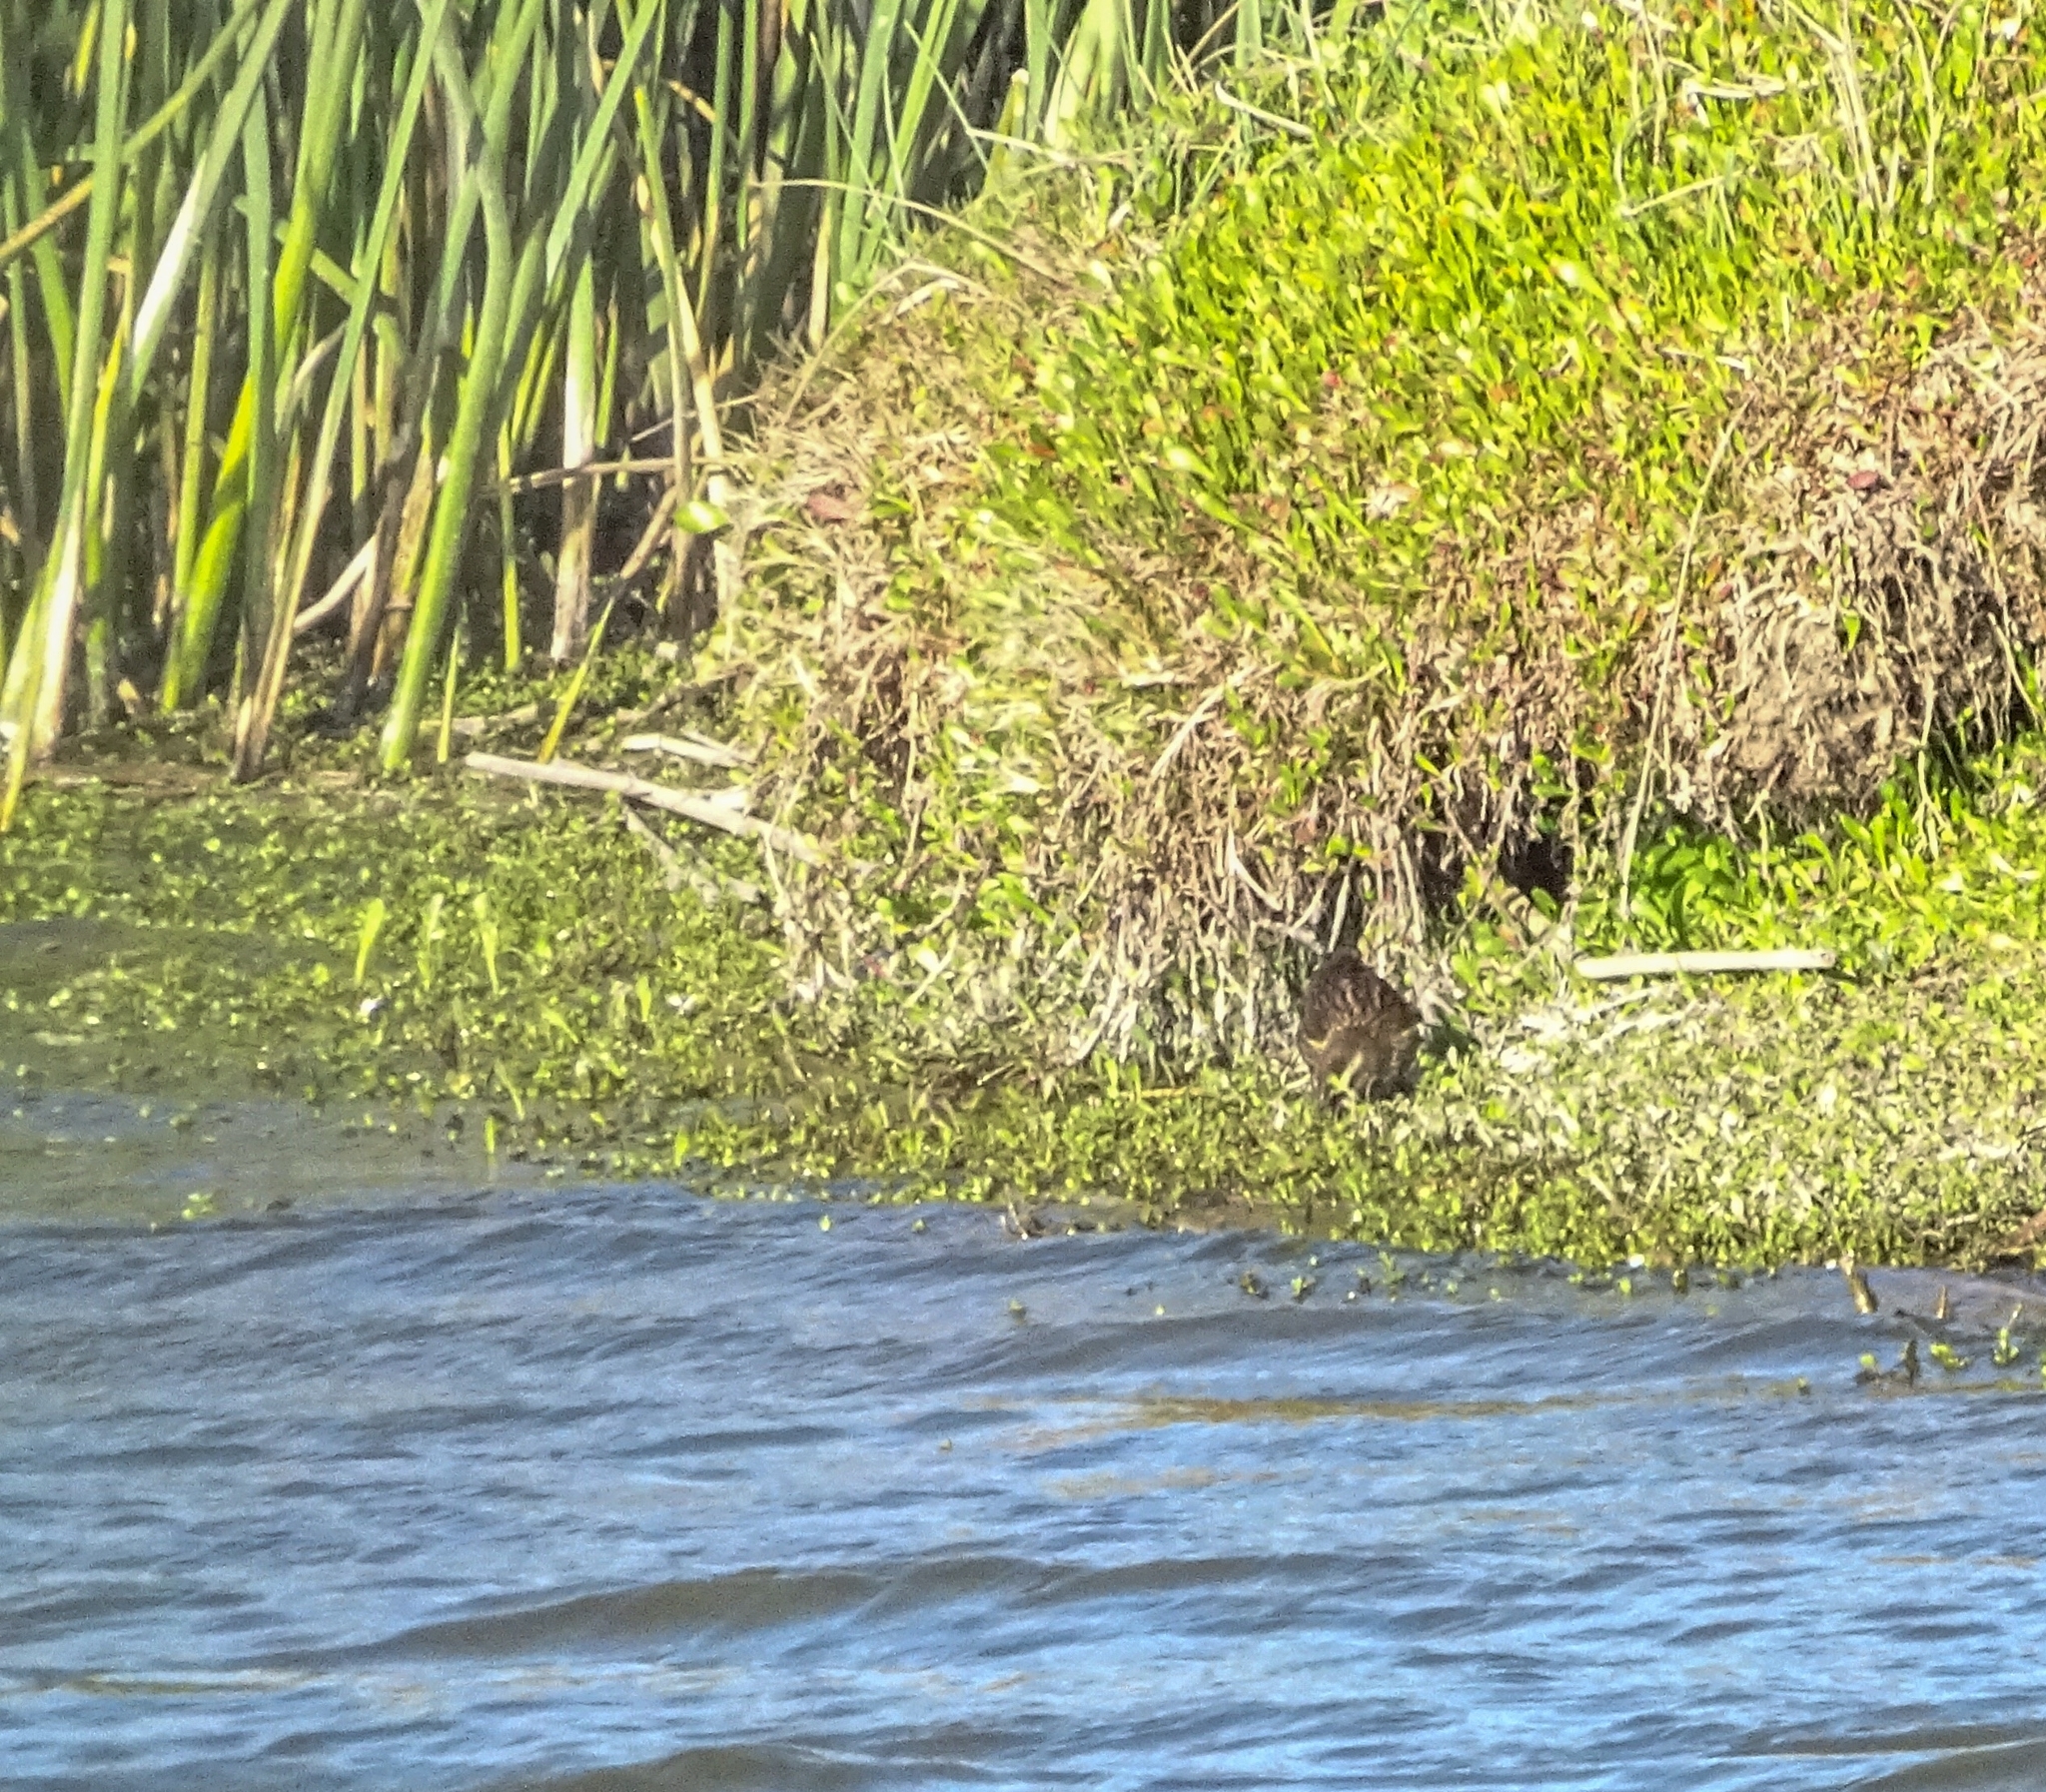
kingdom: Animalia
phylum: Chordata
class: Aves
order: Passeriformes
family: Icteridae
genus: Agelasticus
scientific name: Agelasticus thilius
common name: Yellow-winged blackbird
